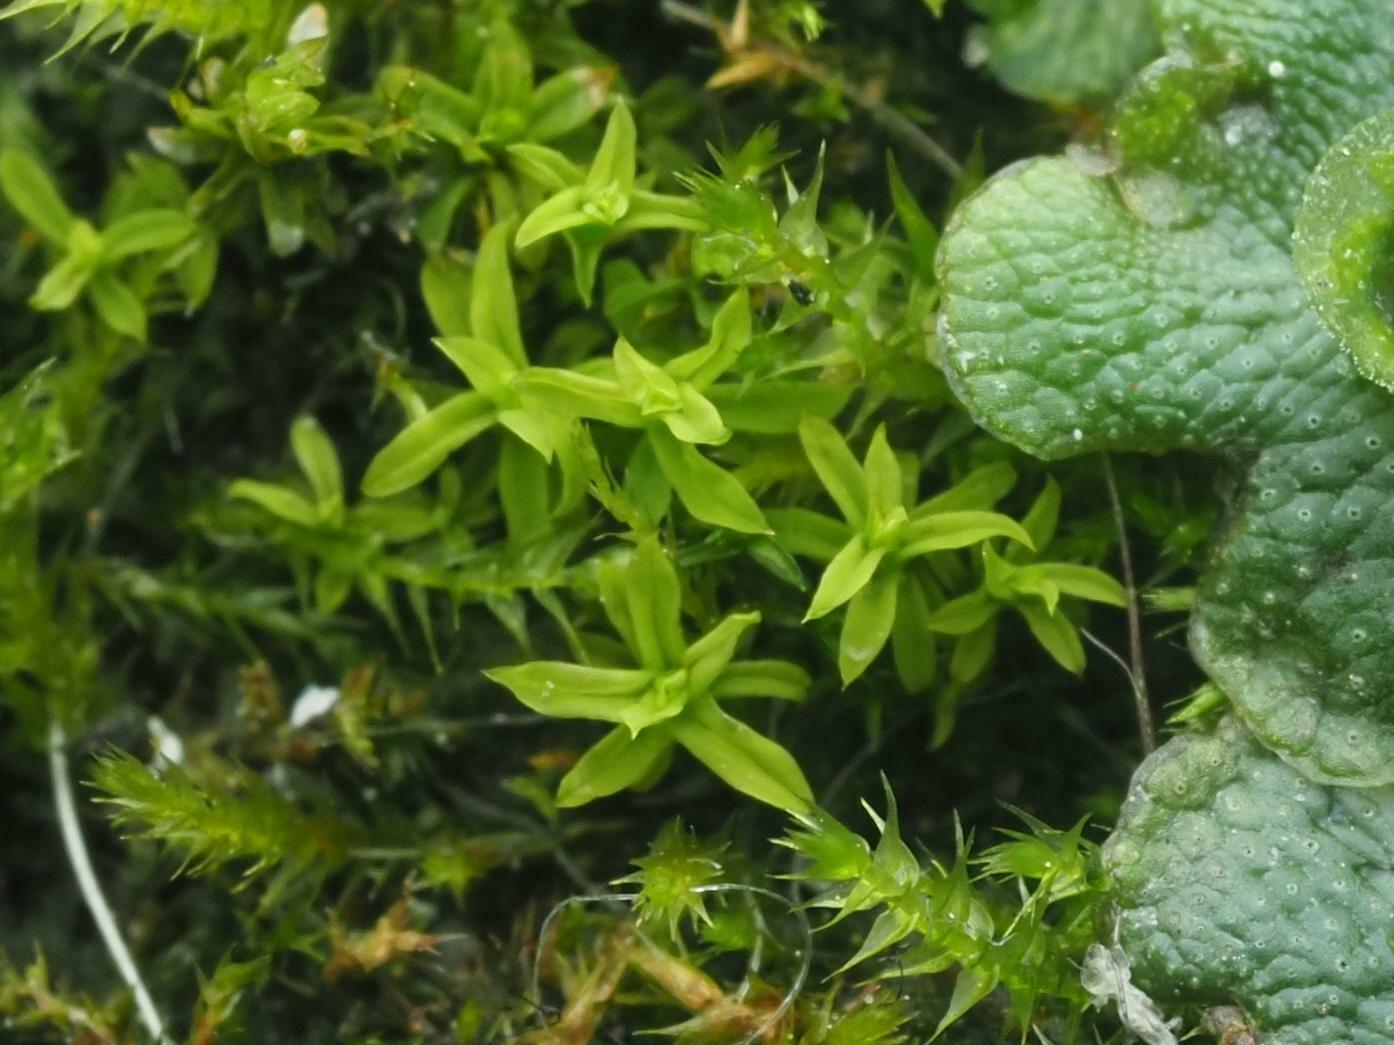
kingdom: Plantae
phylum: Bryophyta
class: Bryopsida
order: Pottiales
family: Pottiaceae
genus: Barbula
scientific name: Barbula unguiculata
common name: Prickly beard moss
